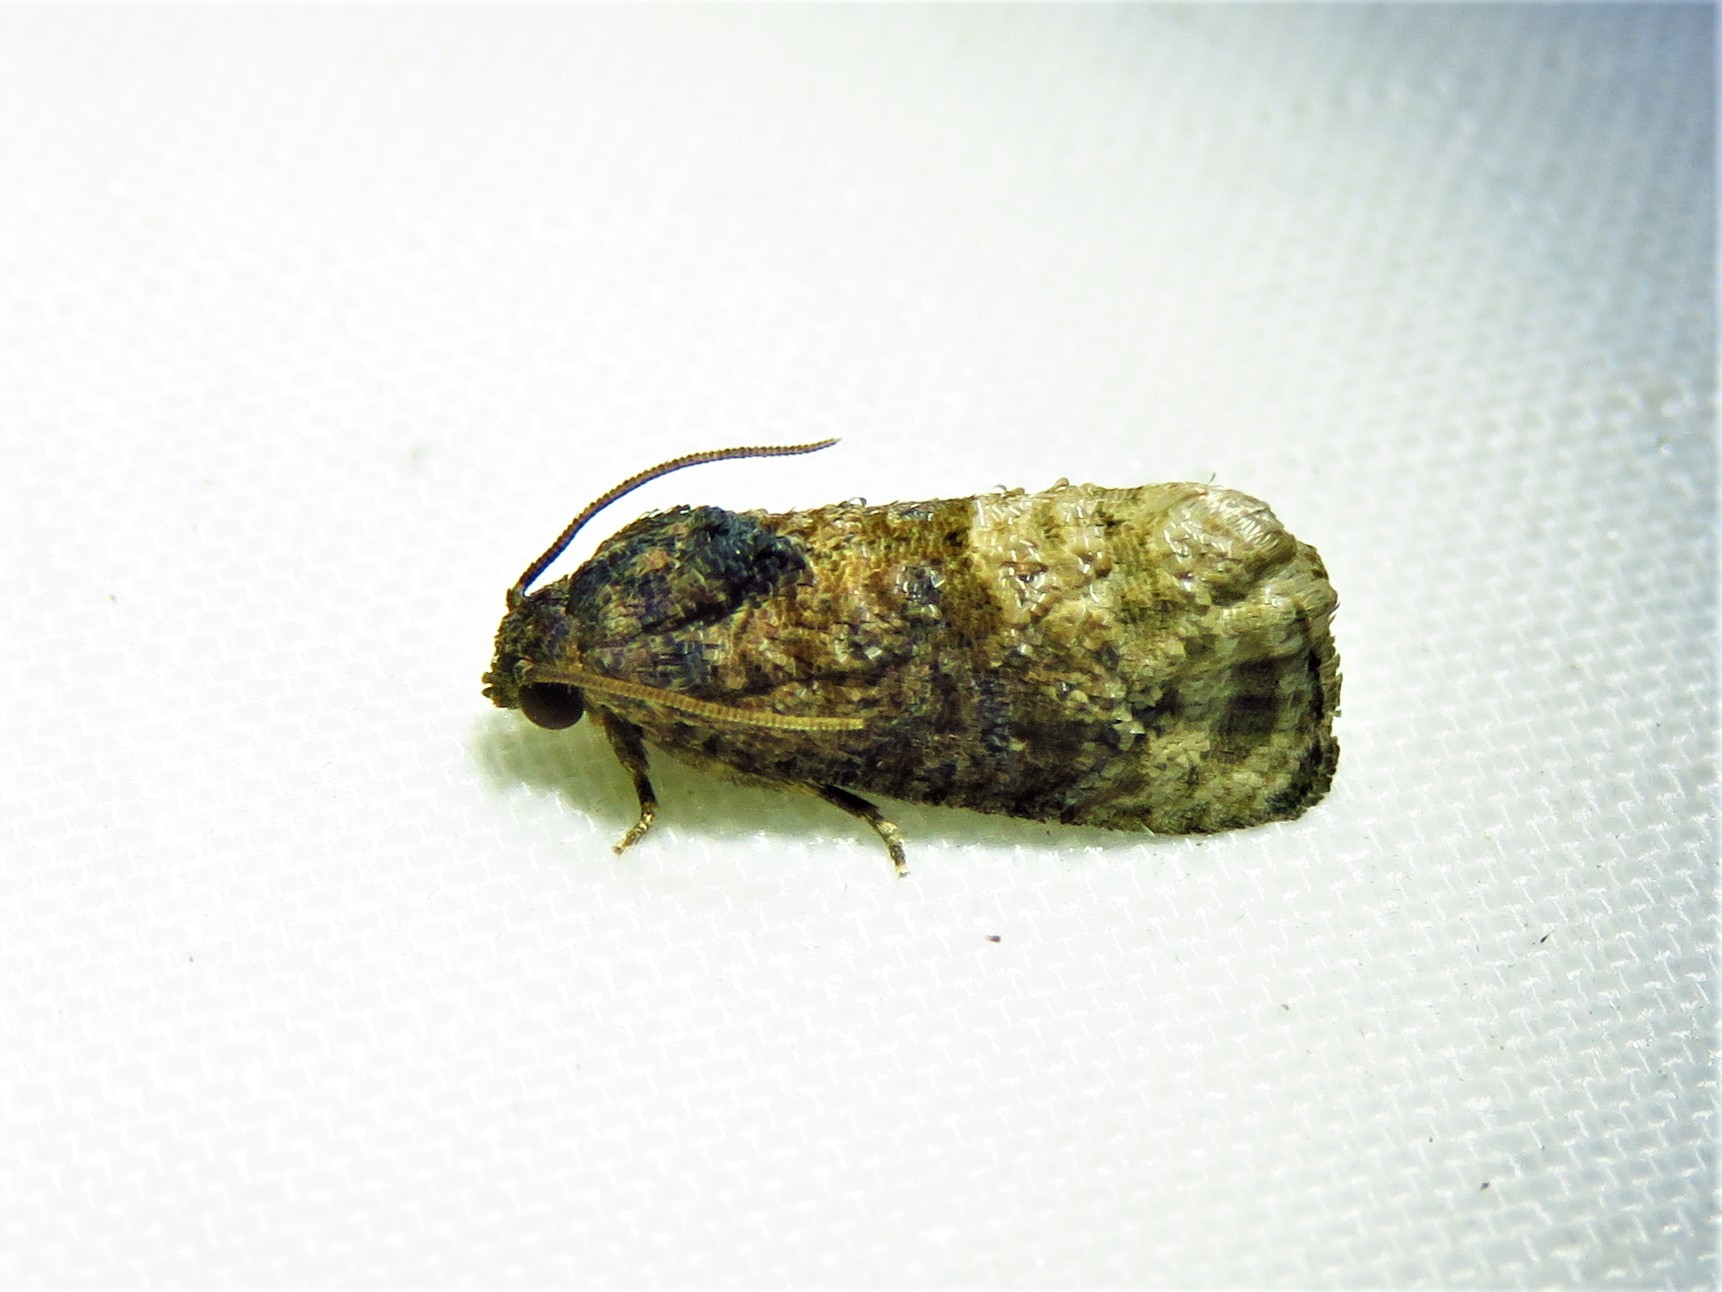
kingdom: Animalia
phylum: Arthropoda
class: Insecta
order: Lepidoptera
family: Tortricidae
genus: Ecdytolopha
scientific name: Ecdytolopha mana
